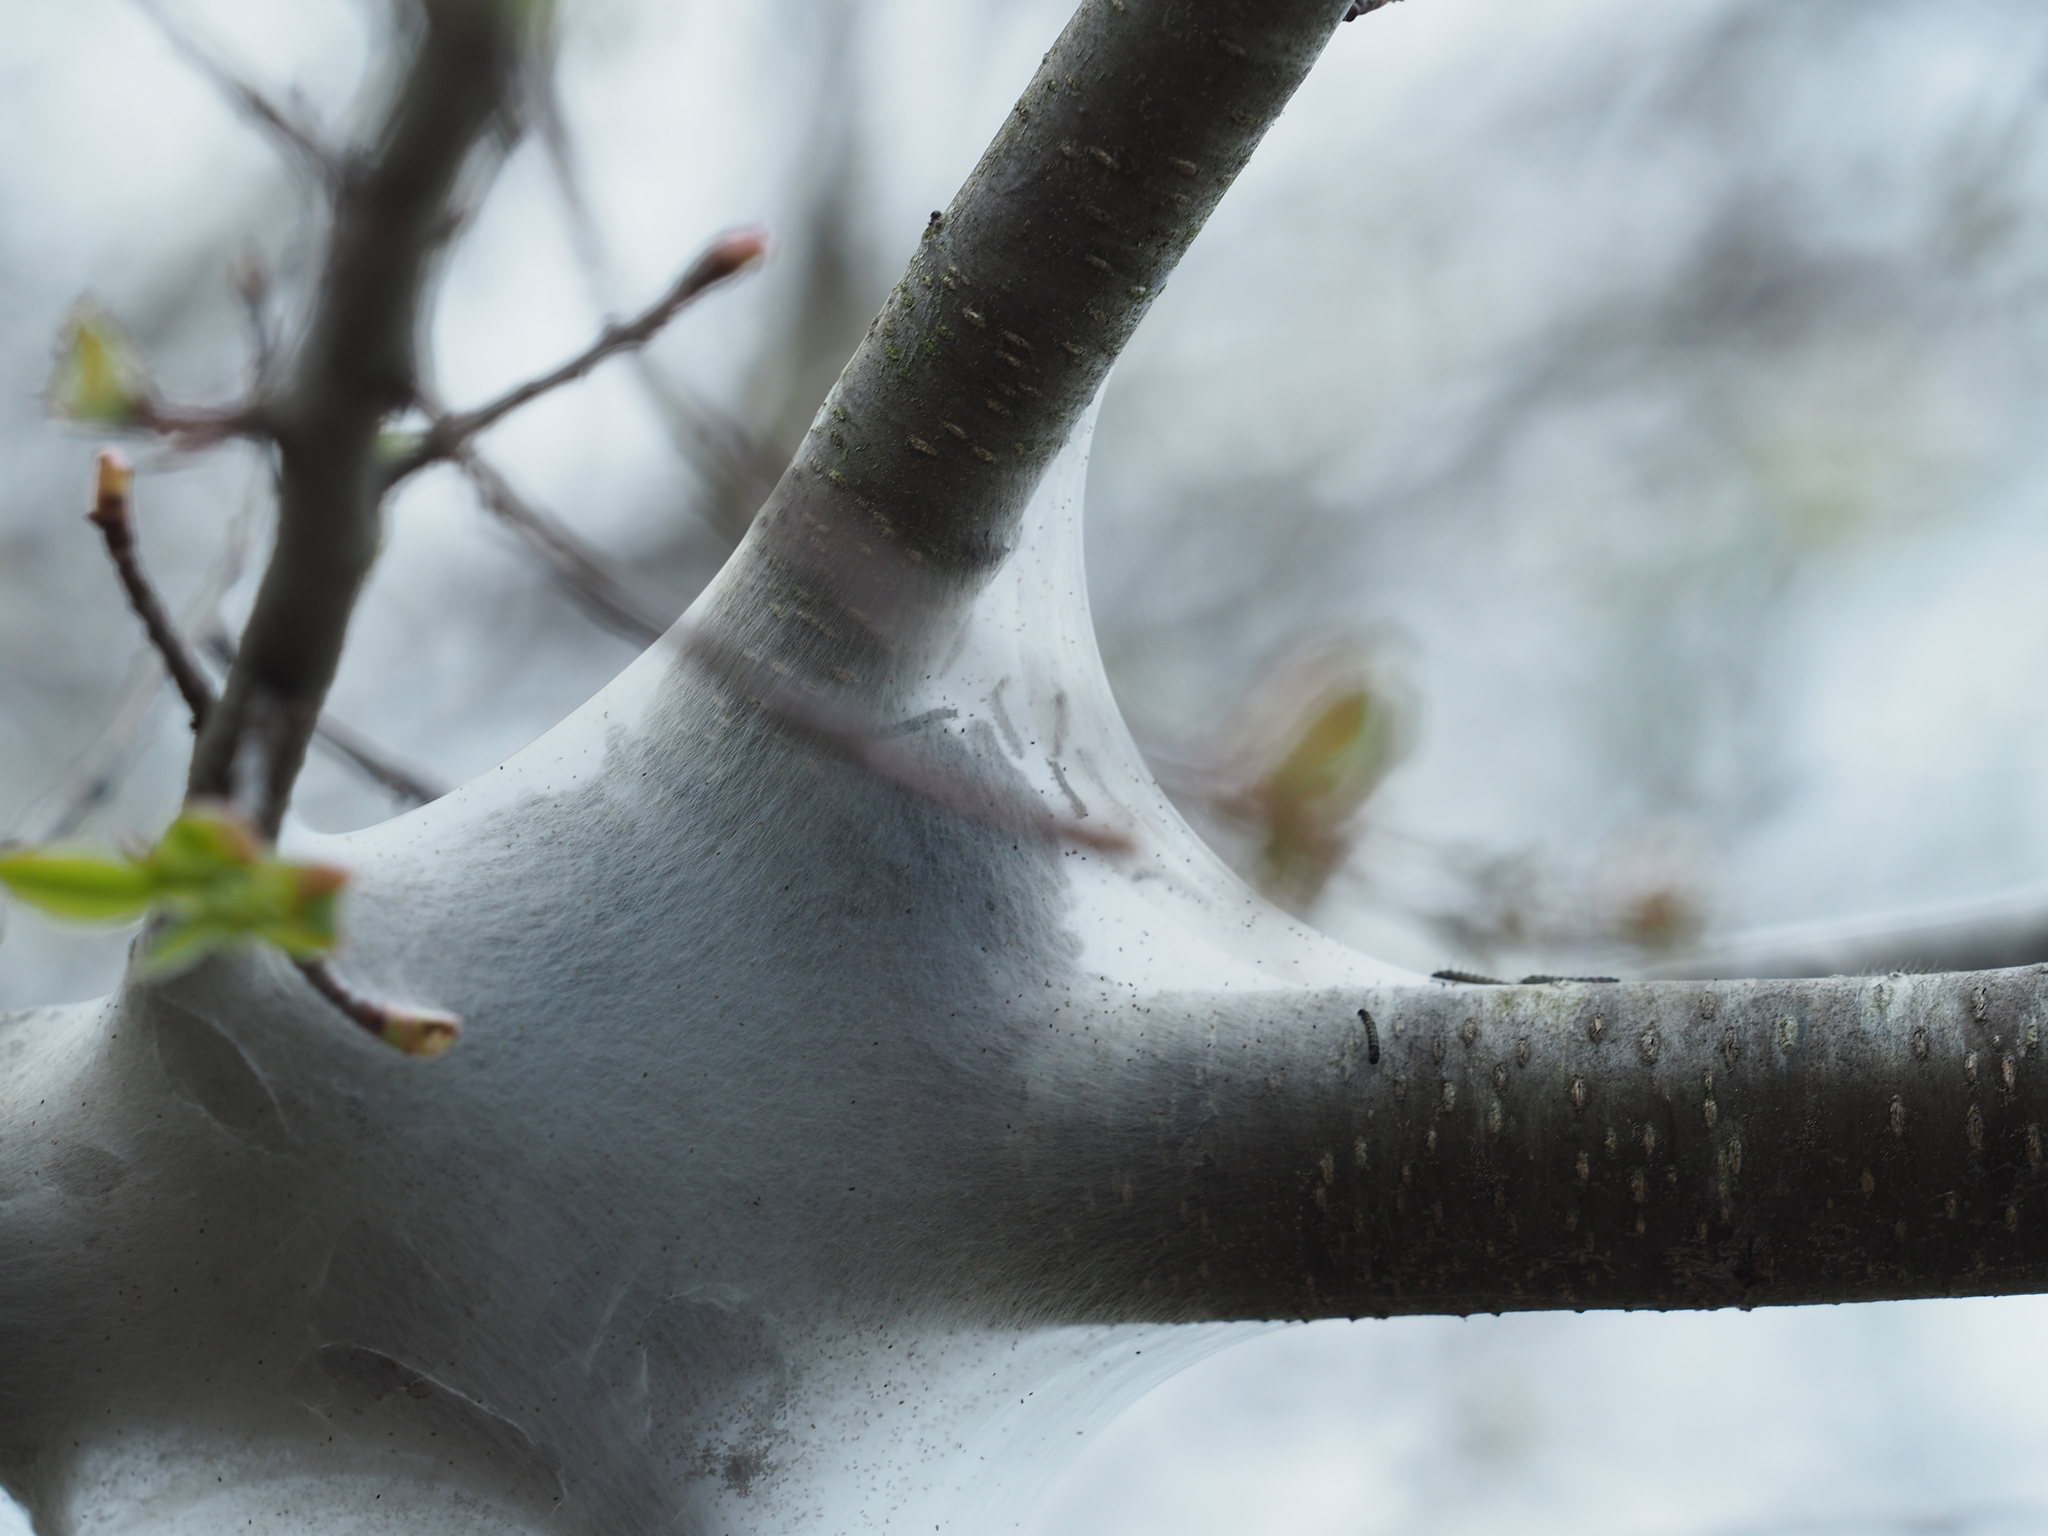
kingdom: Animalia
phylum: Arthropoda
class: Insecta
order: Lepidoptera
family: Lasiocampidae
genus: Malacosoma
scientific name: Malacosoma americana
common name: Eastern tent caterpillar moth
